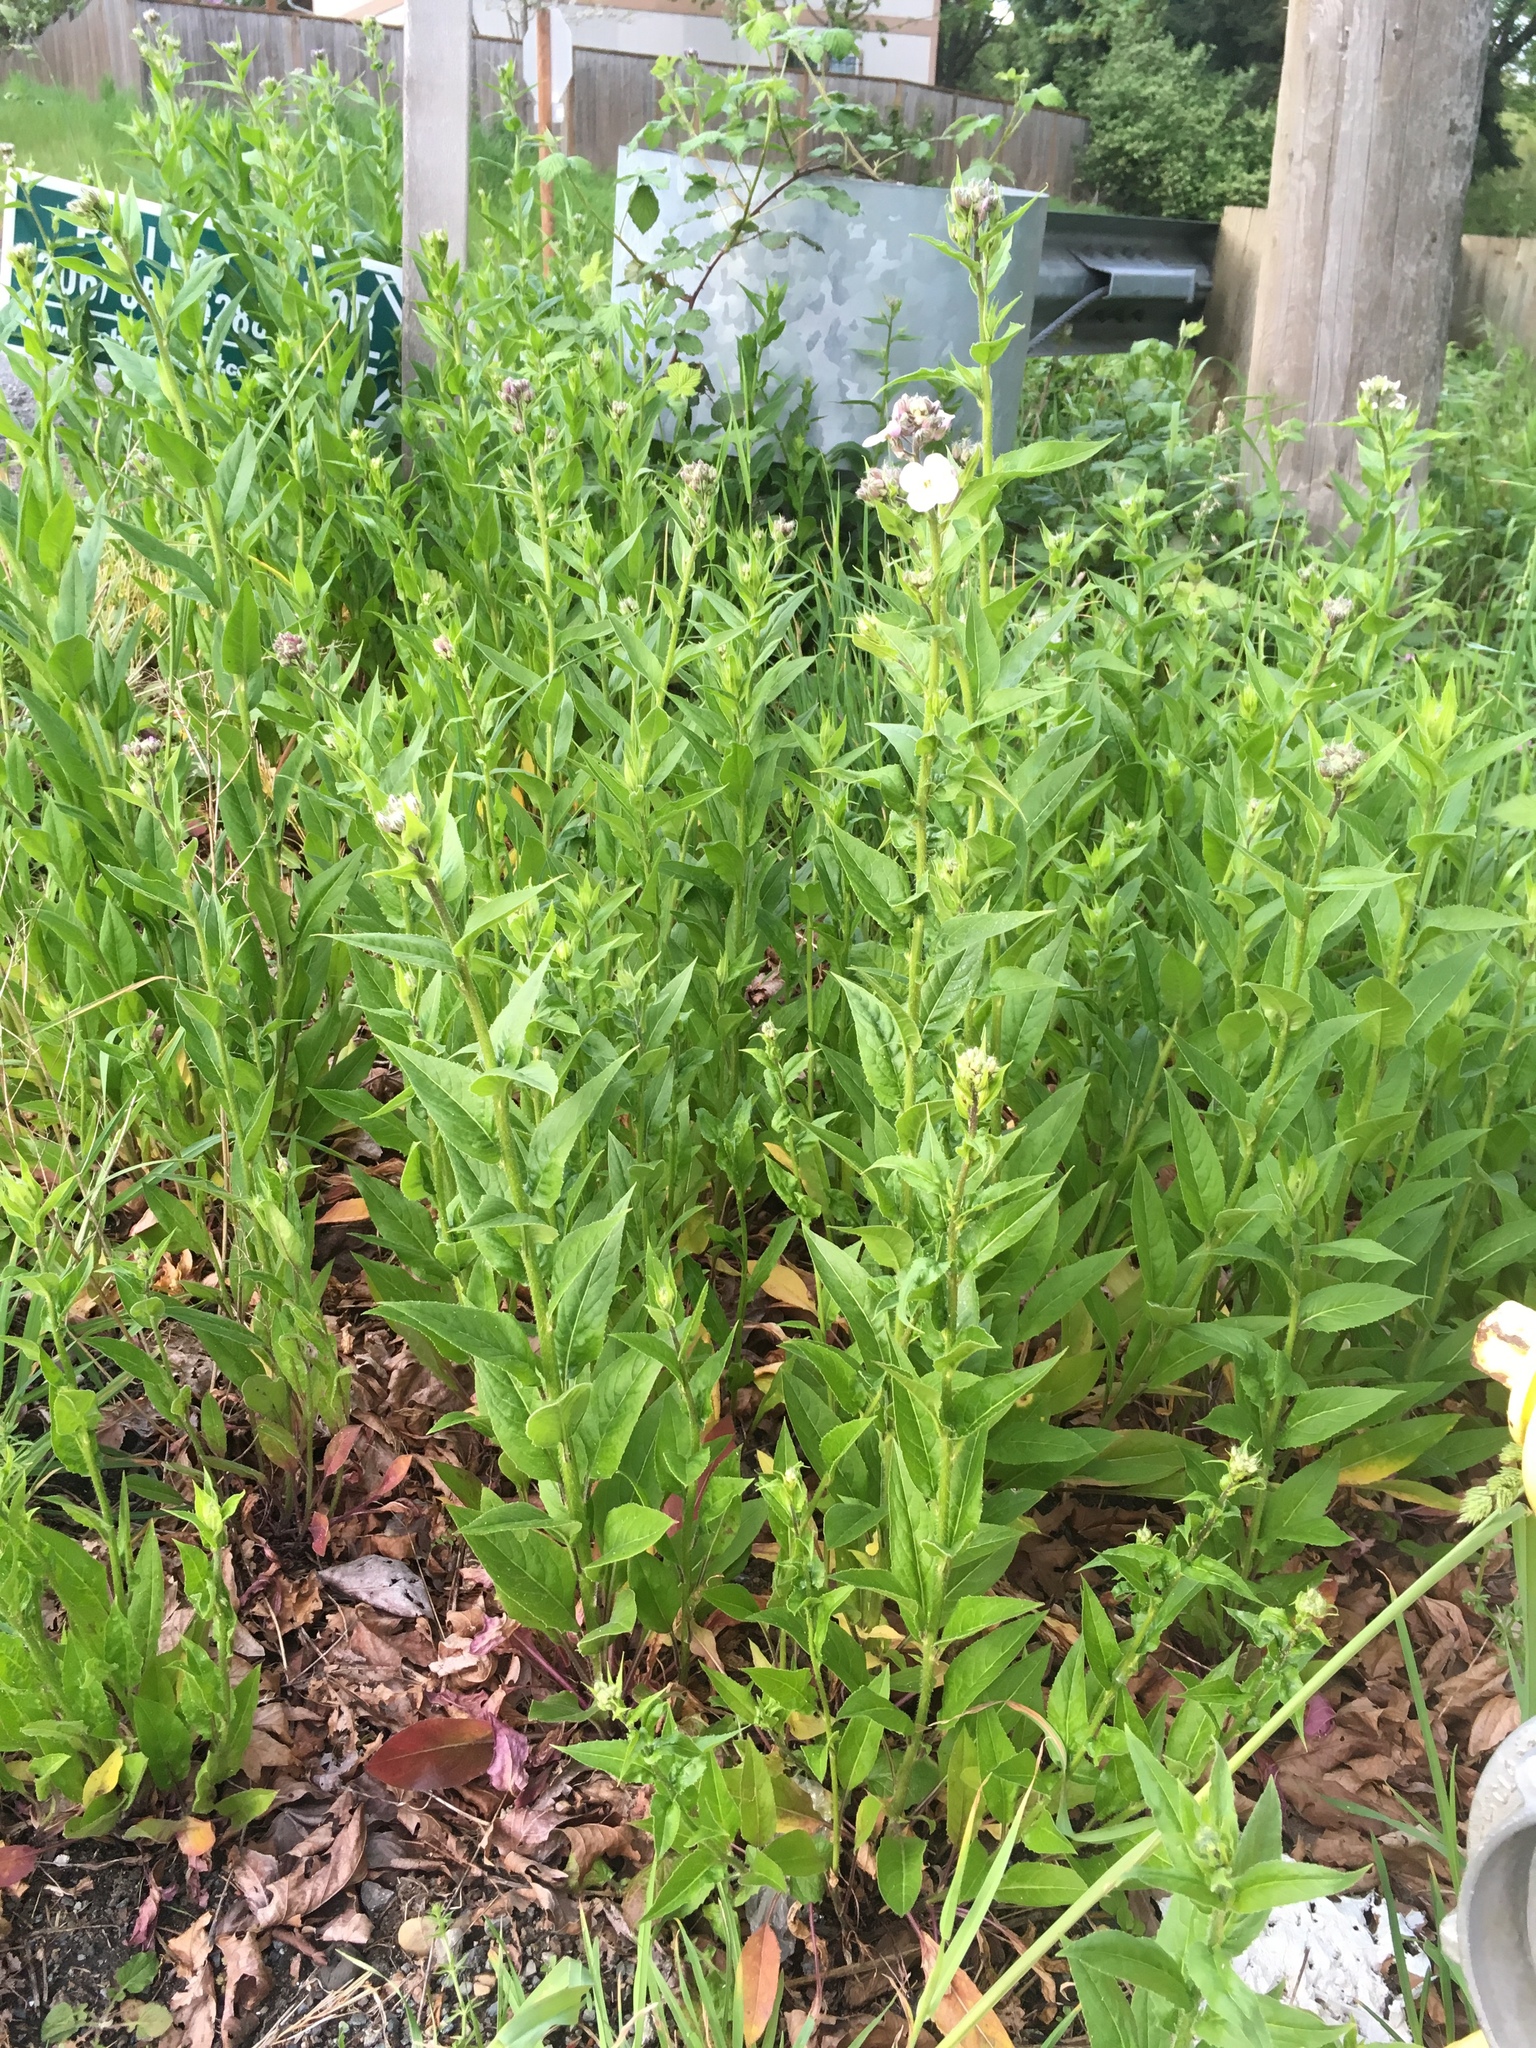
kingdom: Plantae
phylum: Tracheophyta
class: Magnoliopsida
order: Brassicales
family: Brassicaceae
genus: Hesperis
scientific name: Hesperis matronalis
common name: Dame's-violet
